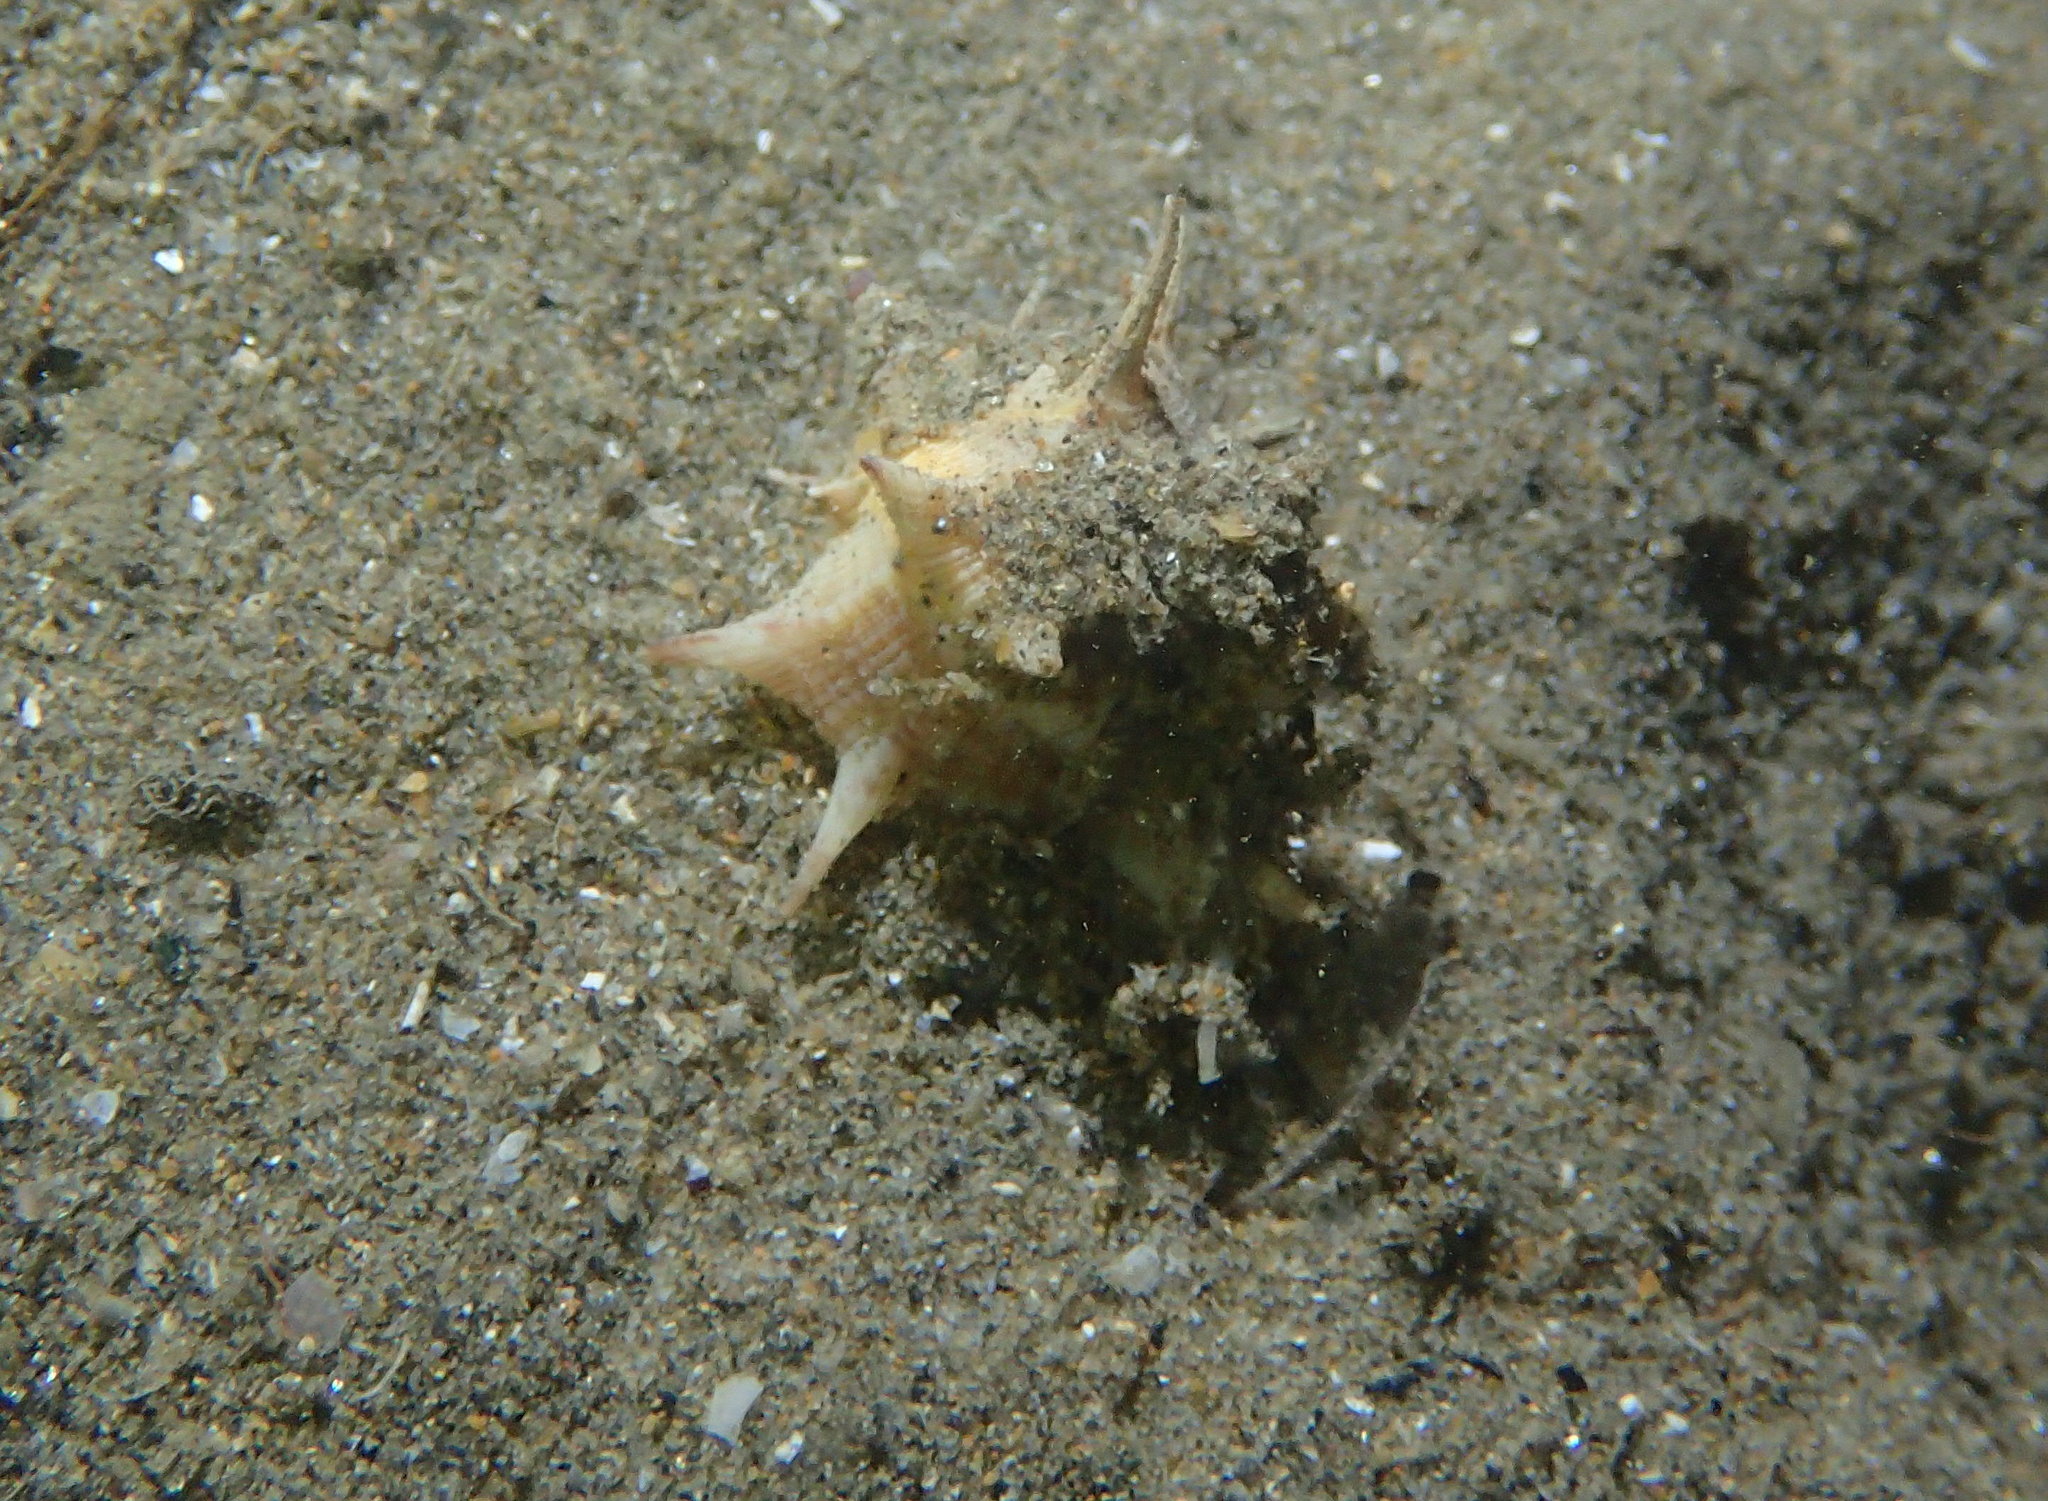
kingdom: Animalia
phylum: Mollusca
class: Gastropoda
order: Neogastropoda
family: Muricidae
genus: Bolinus
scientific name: Bolinus brandaris
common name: Dye murex
